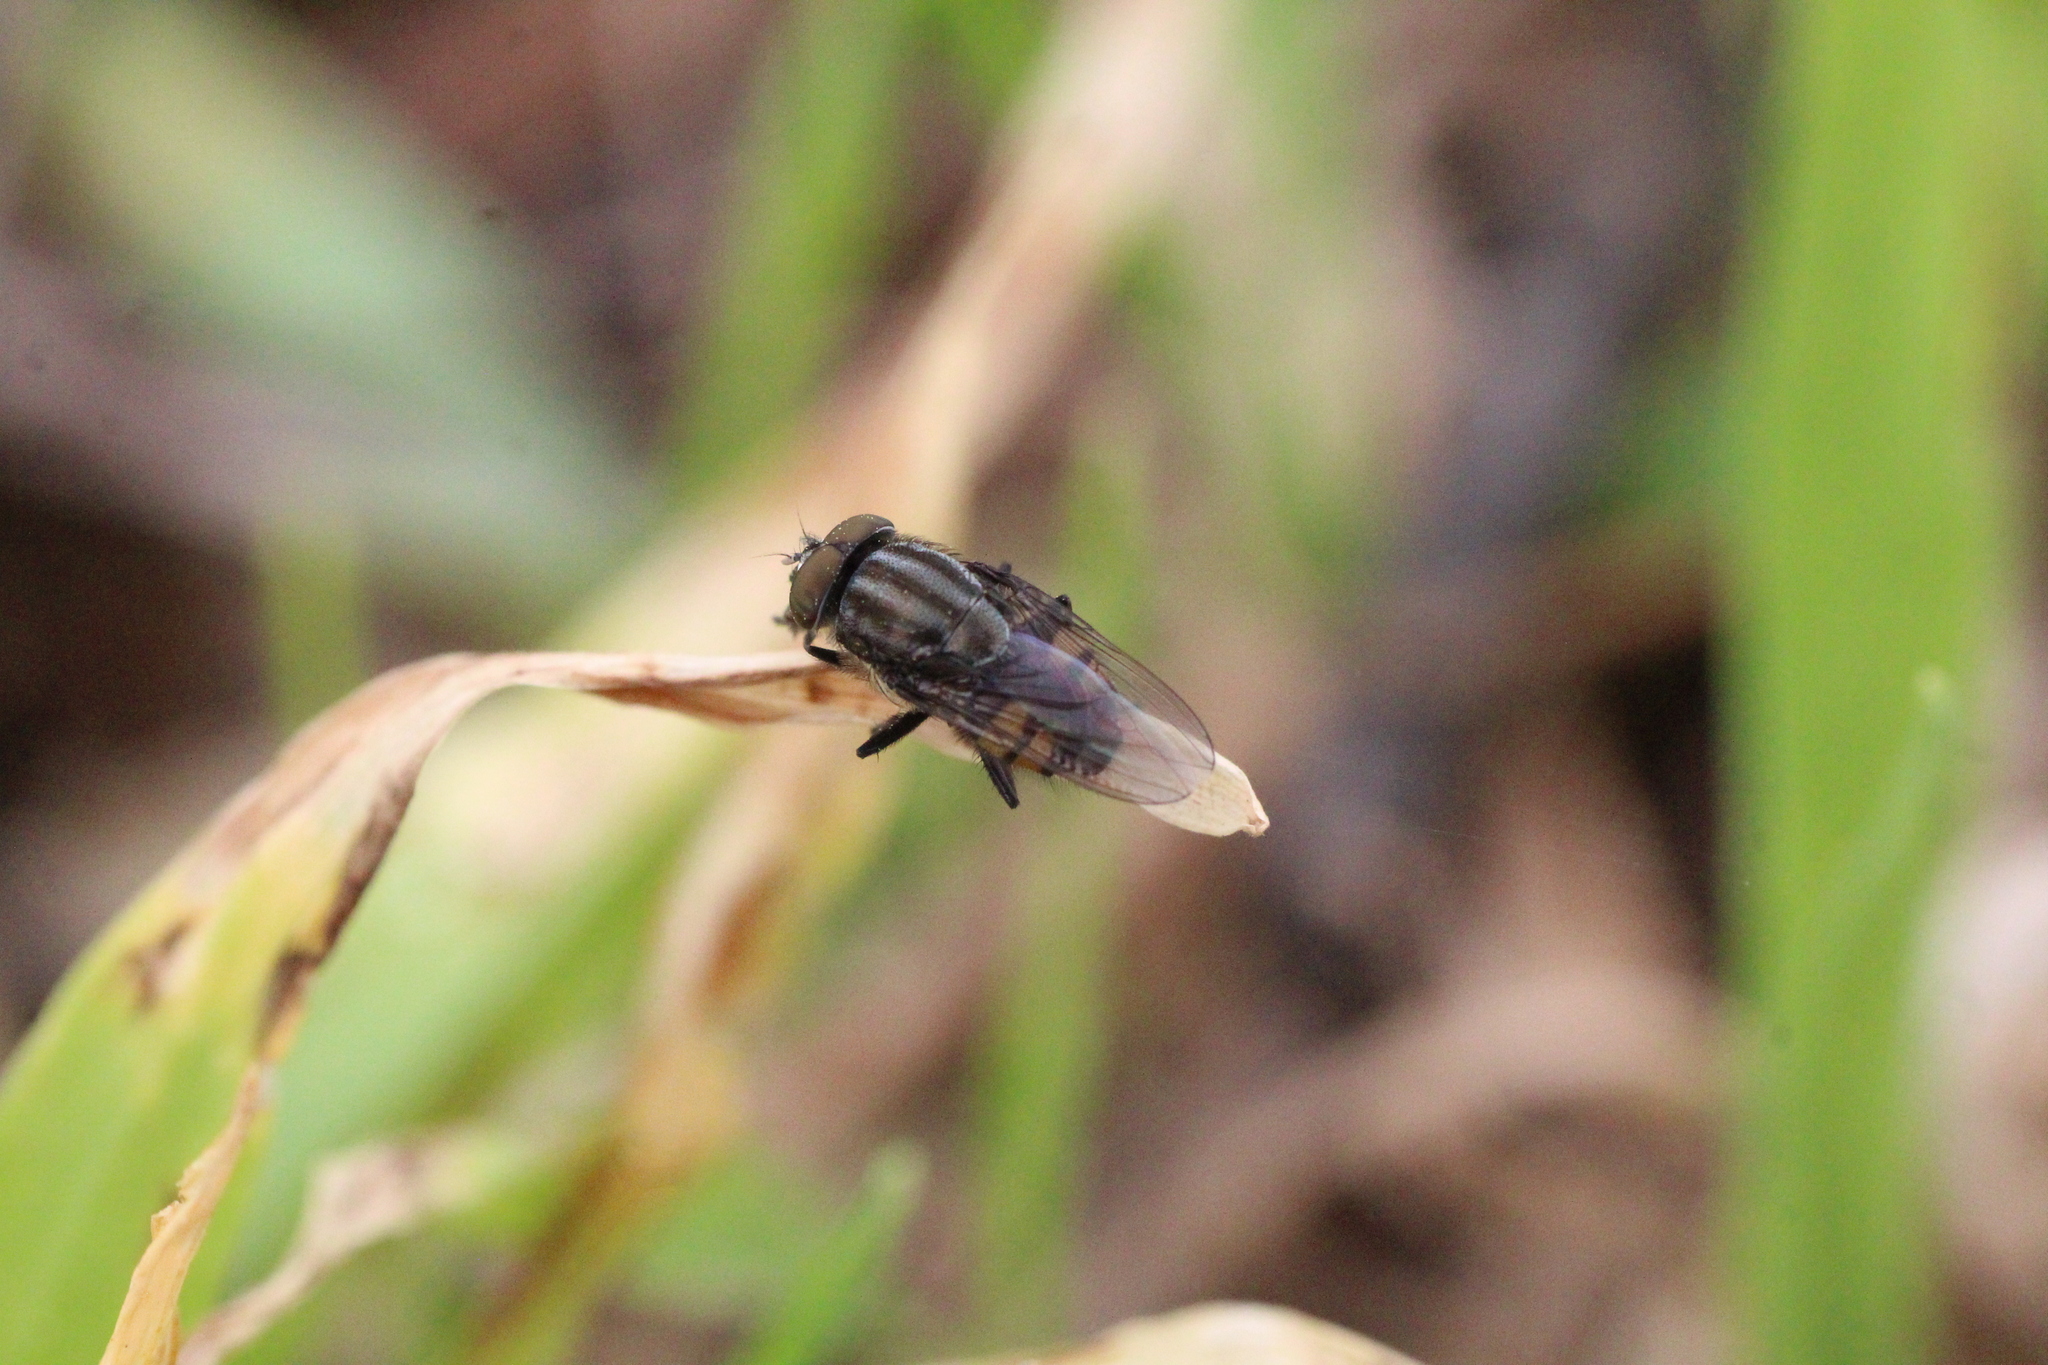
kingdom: Animalia
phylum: Arthropoda
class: Insecta
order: Diptera
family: Calliphoridae
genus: Stomorhina
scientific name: Stomorhina lunata
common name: Locust blowfly
